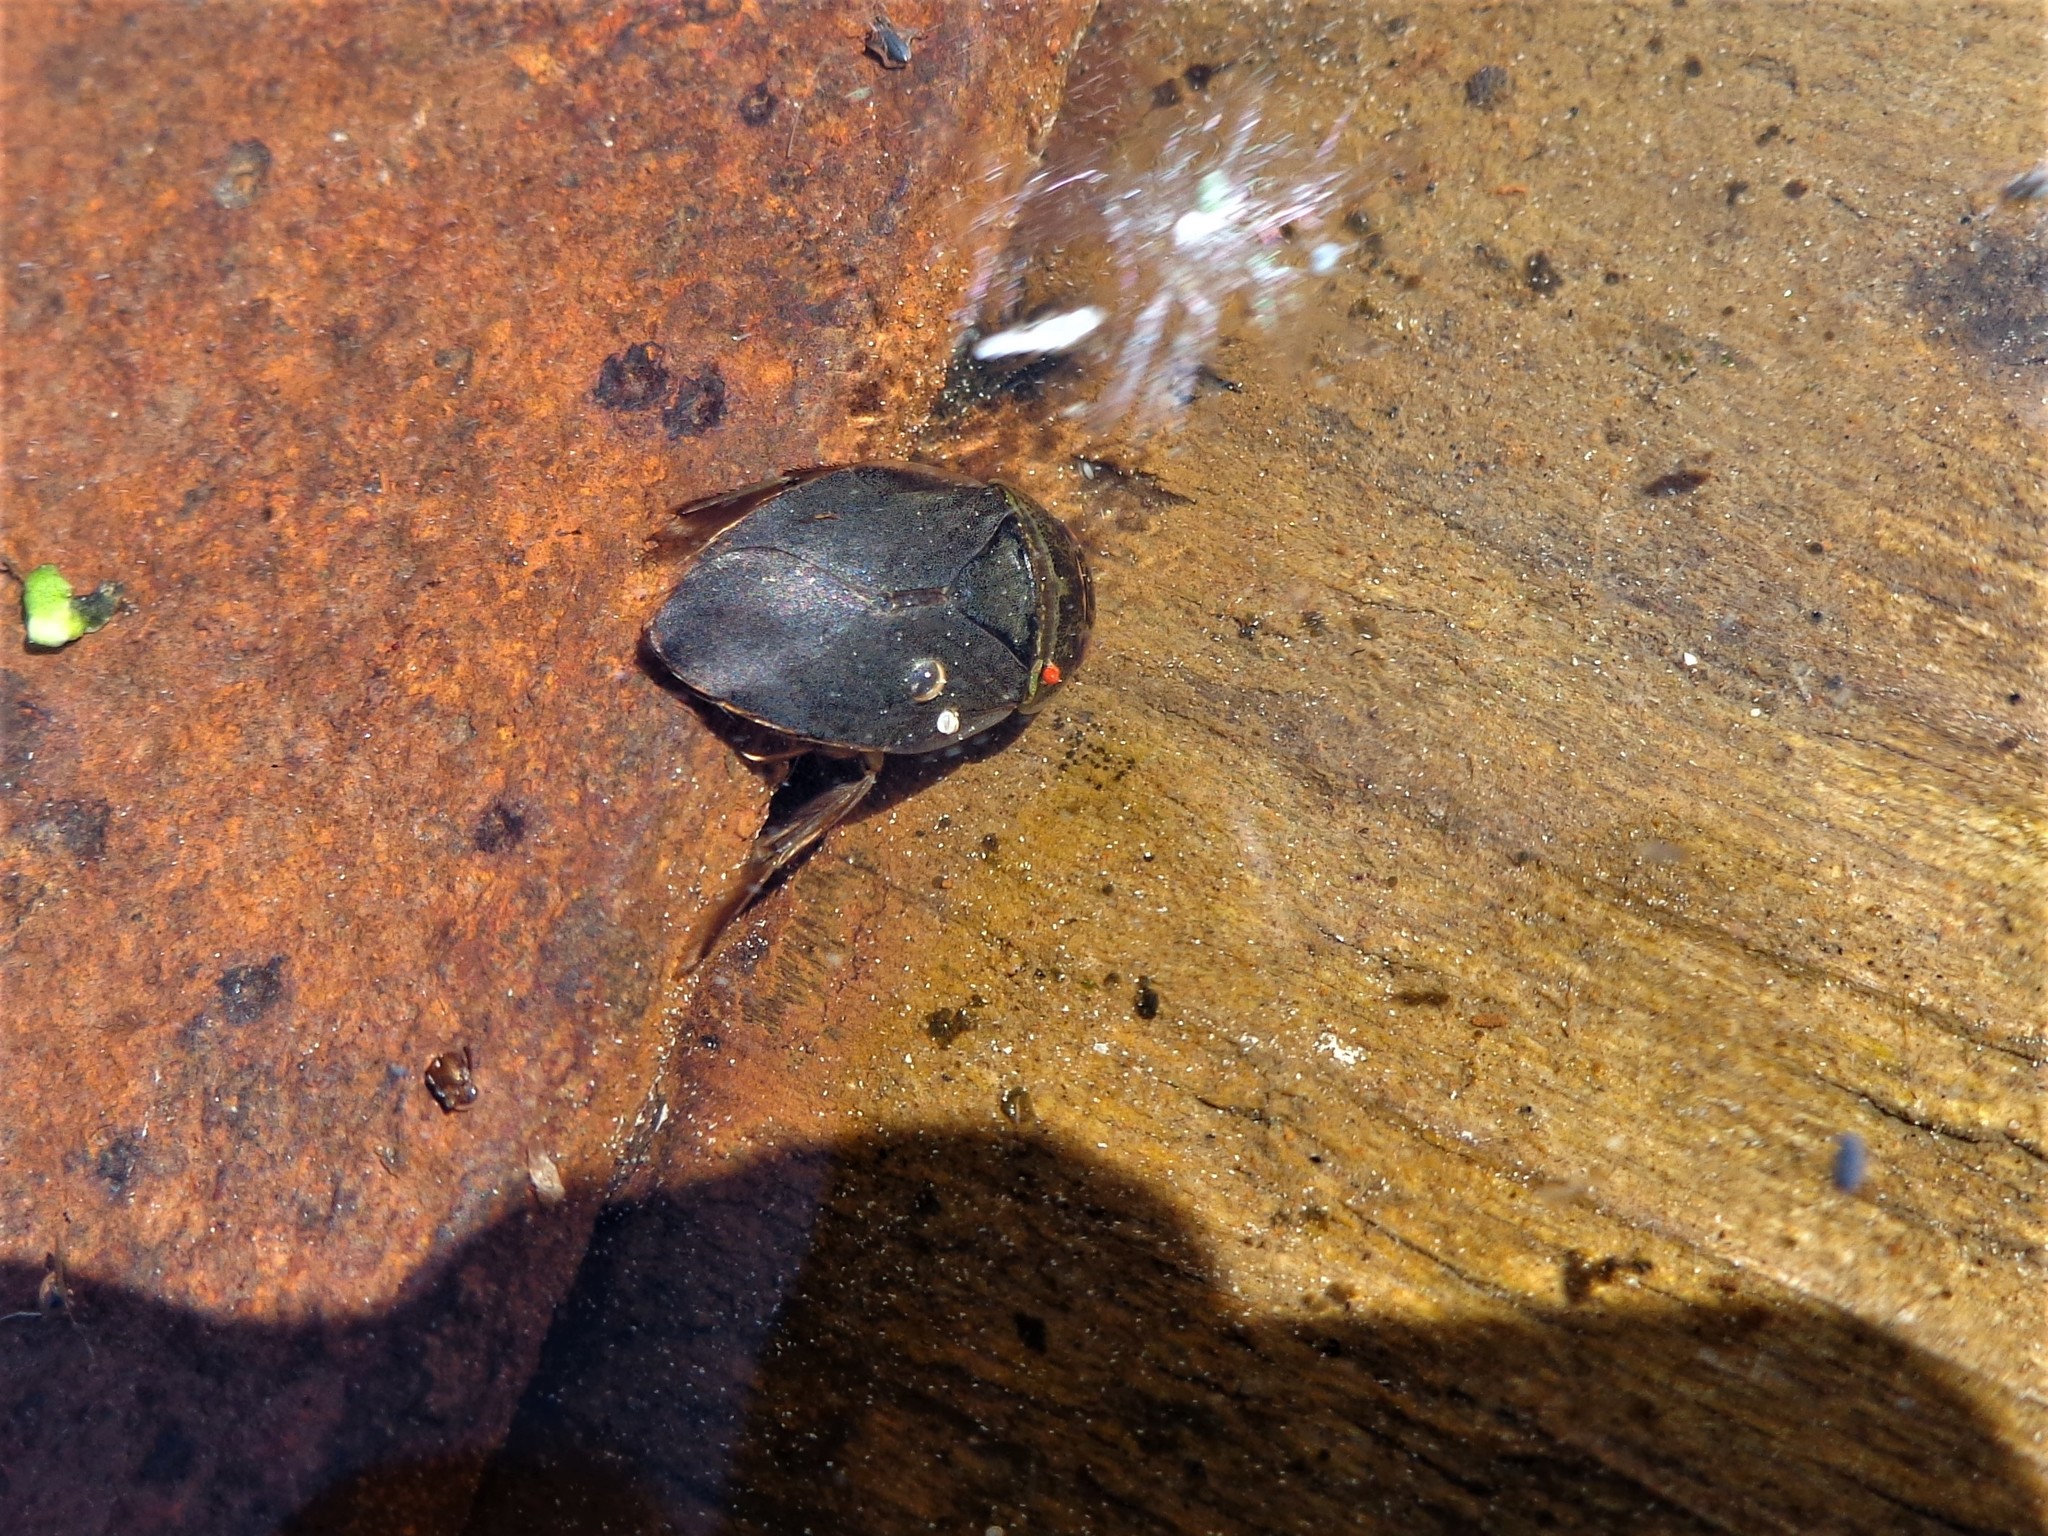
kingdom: Animalia
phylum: Arthropoda
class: Insecta
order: Hemiptera
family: Naucoridae
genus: Ilyocoris
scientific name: Ilyocoris cimicoides
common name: Saucer bugs
